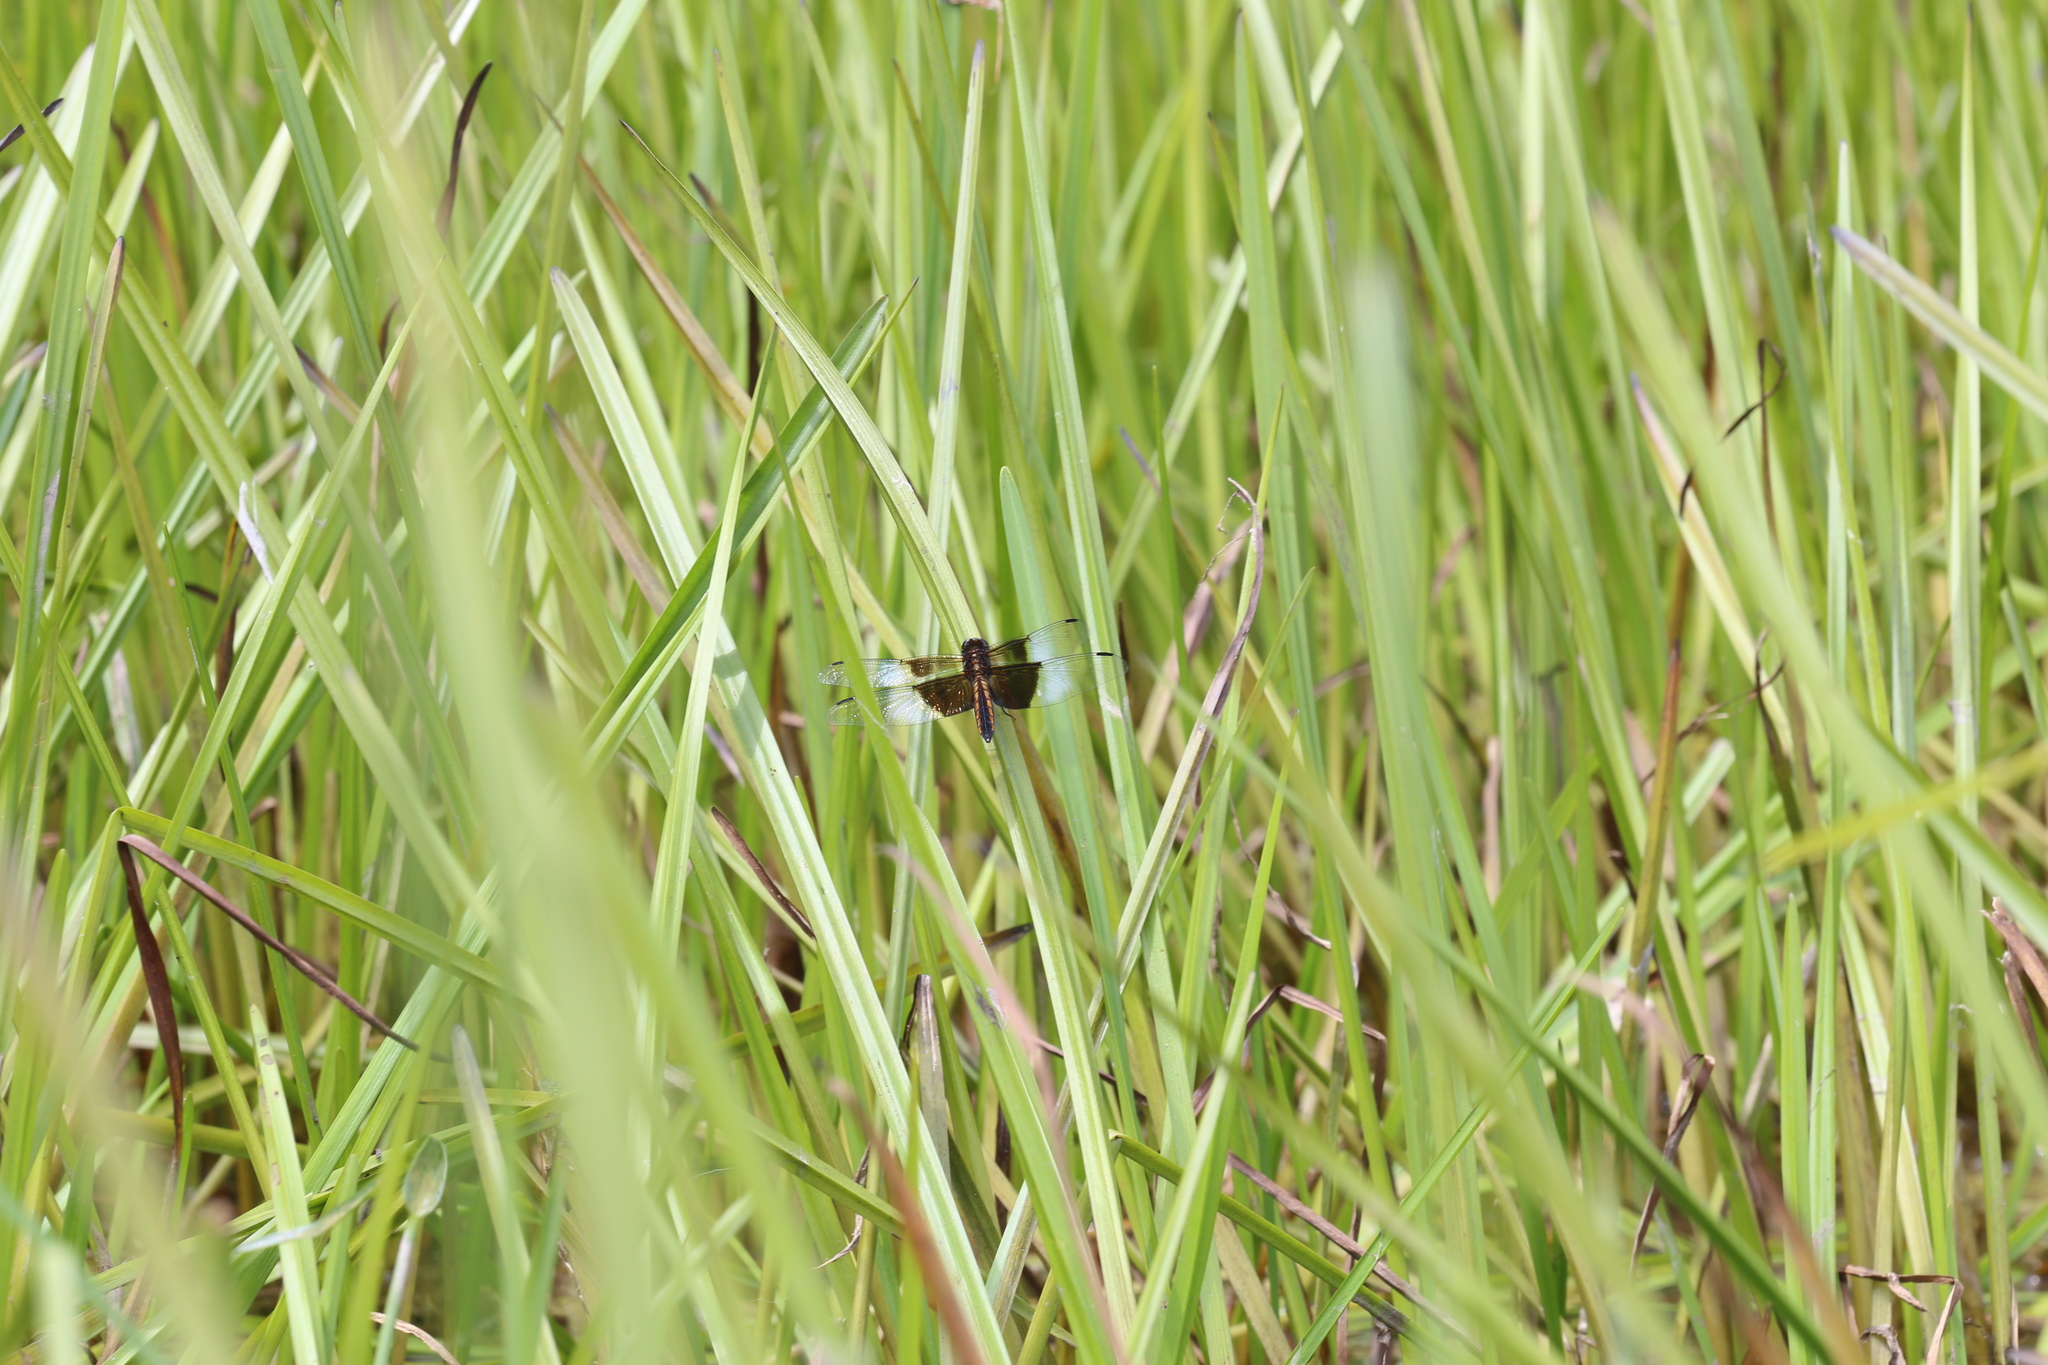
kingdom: Animalia
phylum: Arthropoda
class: Insecta
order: Odonata
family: Libellulidae
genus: Libellula
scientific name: Libellula luctuosa
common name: Widow skimmer
